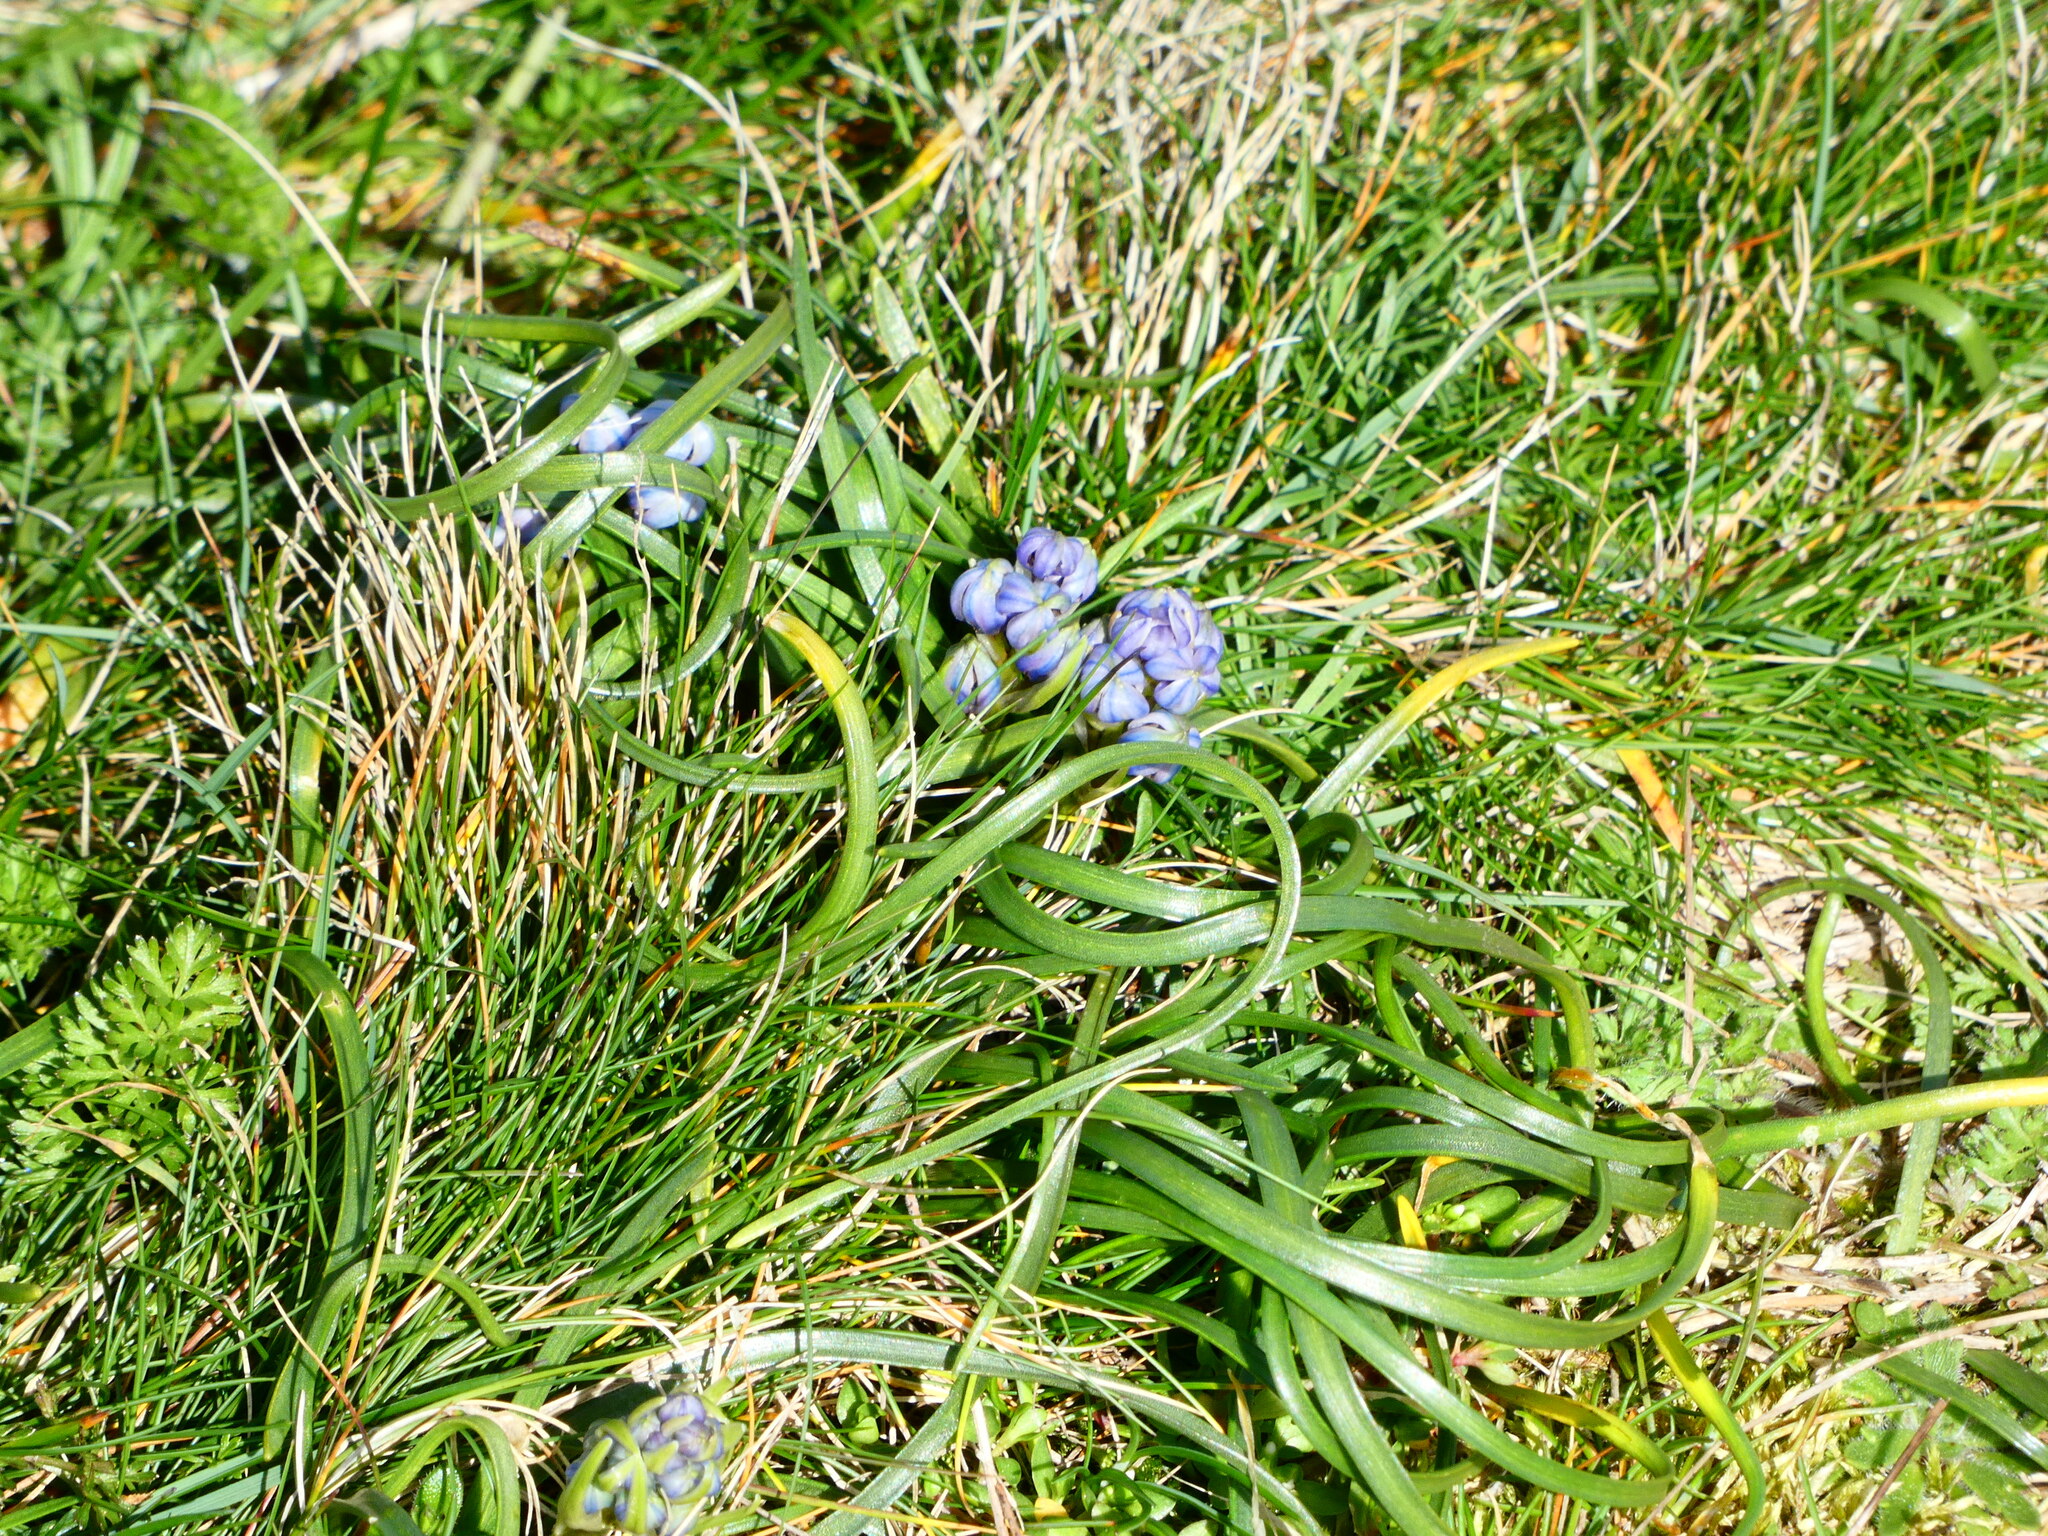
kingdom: Plantae
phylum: Tracheophyta
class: Liliopsida
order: Asparagales
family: Asparagaceae
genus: Scilla
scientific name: Scilla verna
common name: Spring squill
